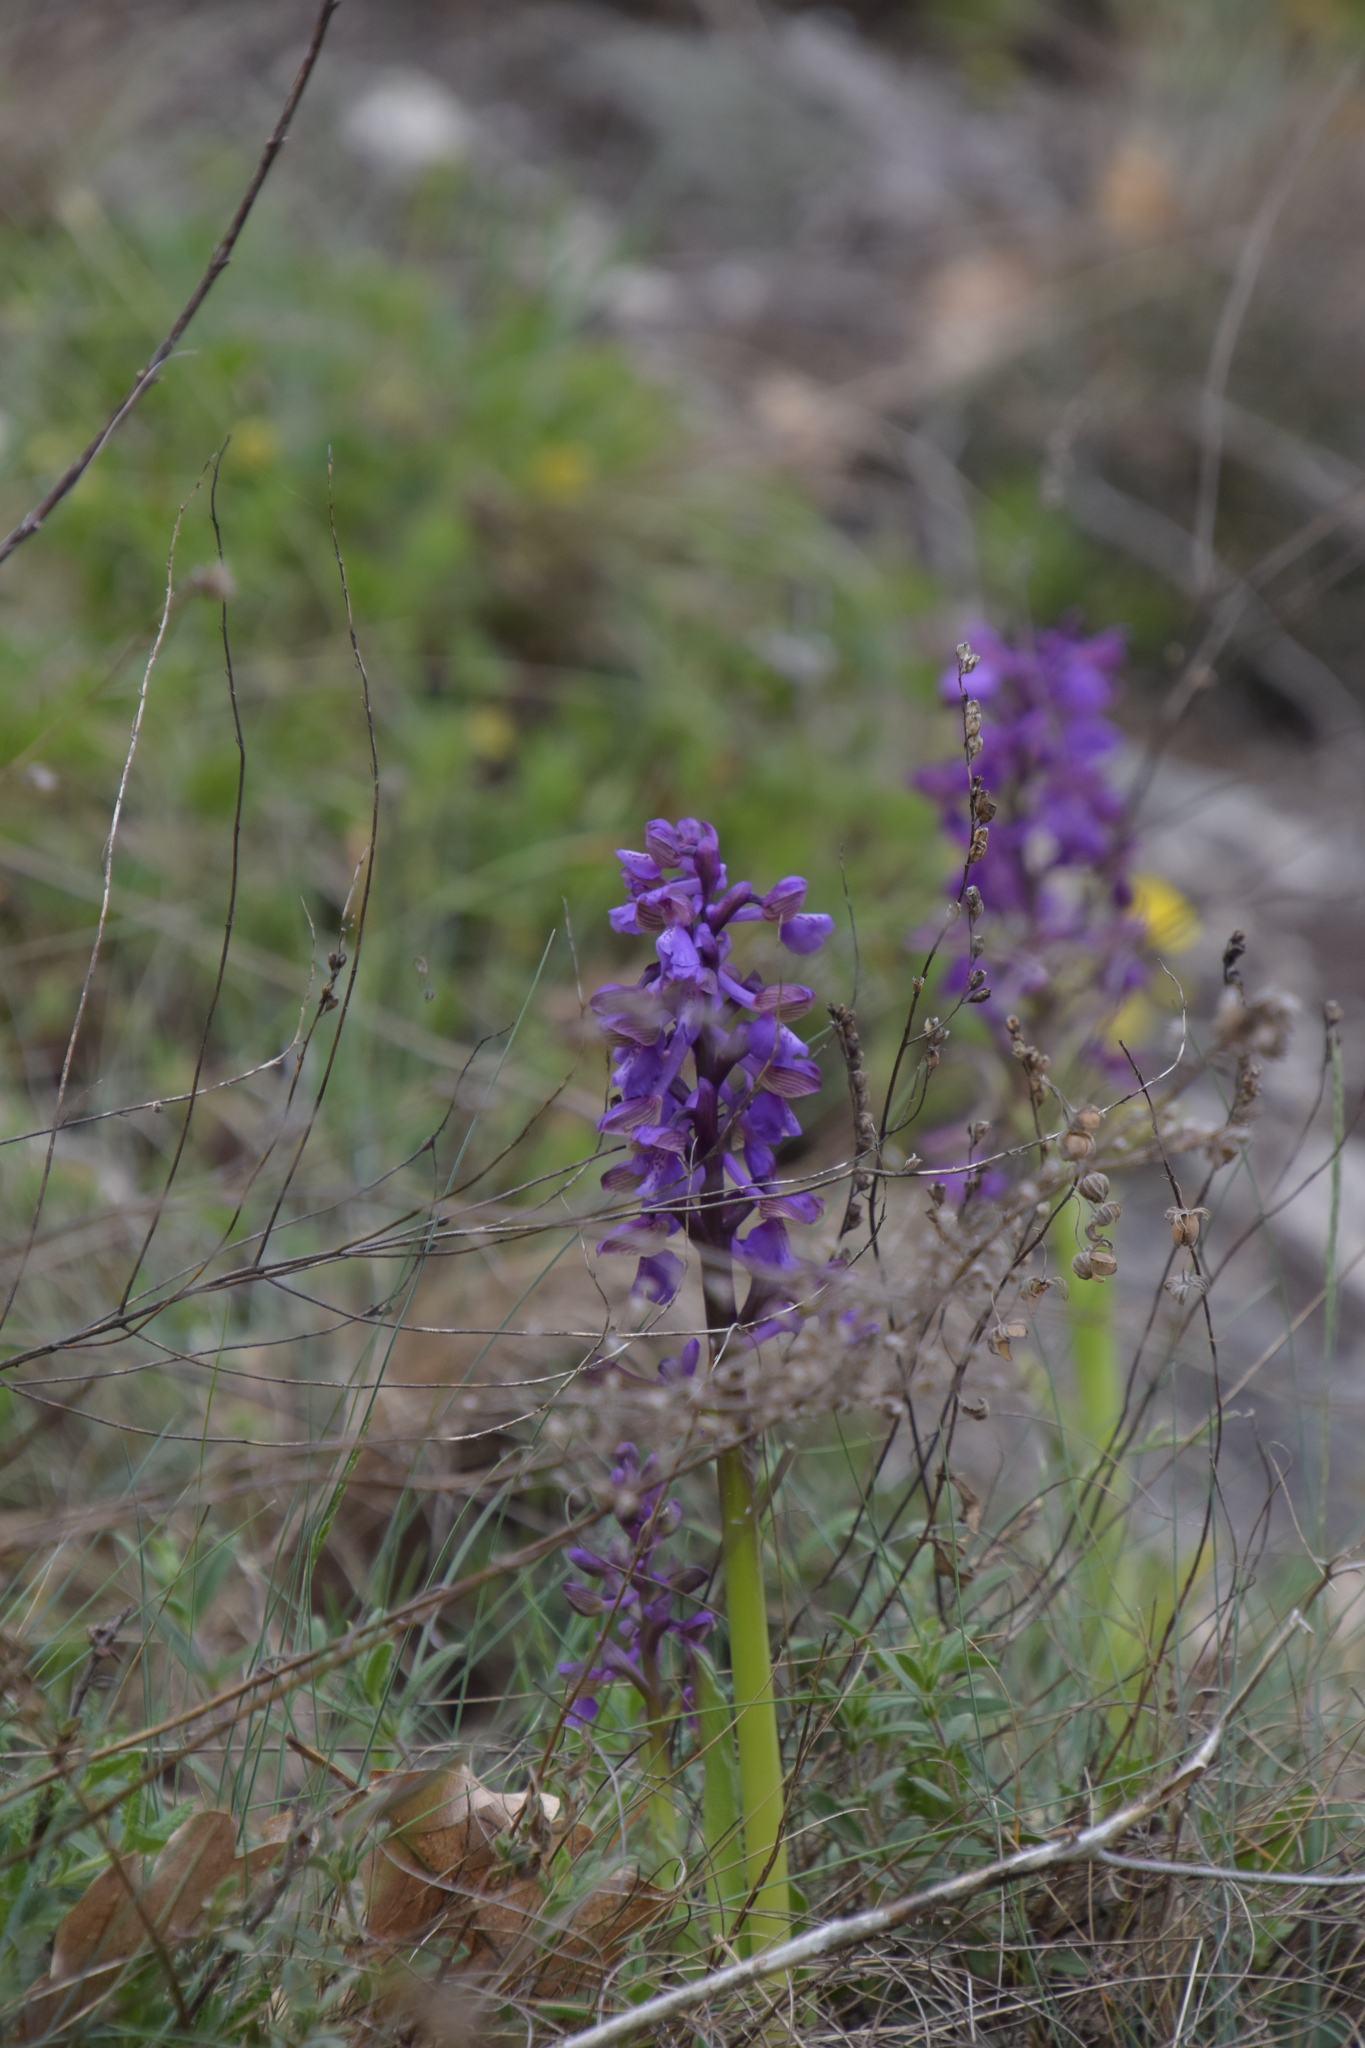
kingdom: Plantae
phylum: Tracheophyta
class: Liliopsida
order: Asparagales
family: Orchidaceae
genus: Anacamptis
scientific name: Anacamptis morio
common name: Green-winged orchid
